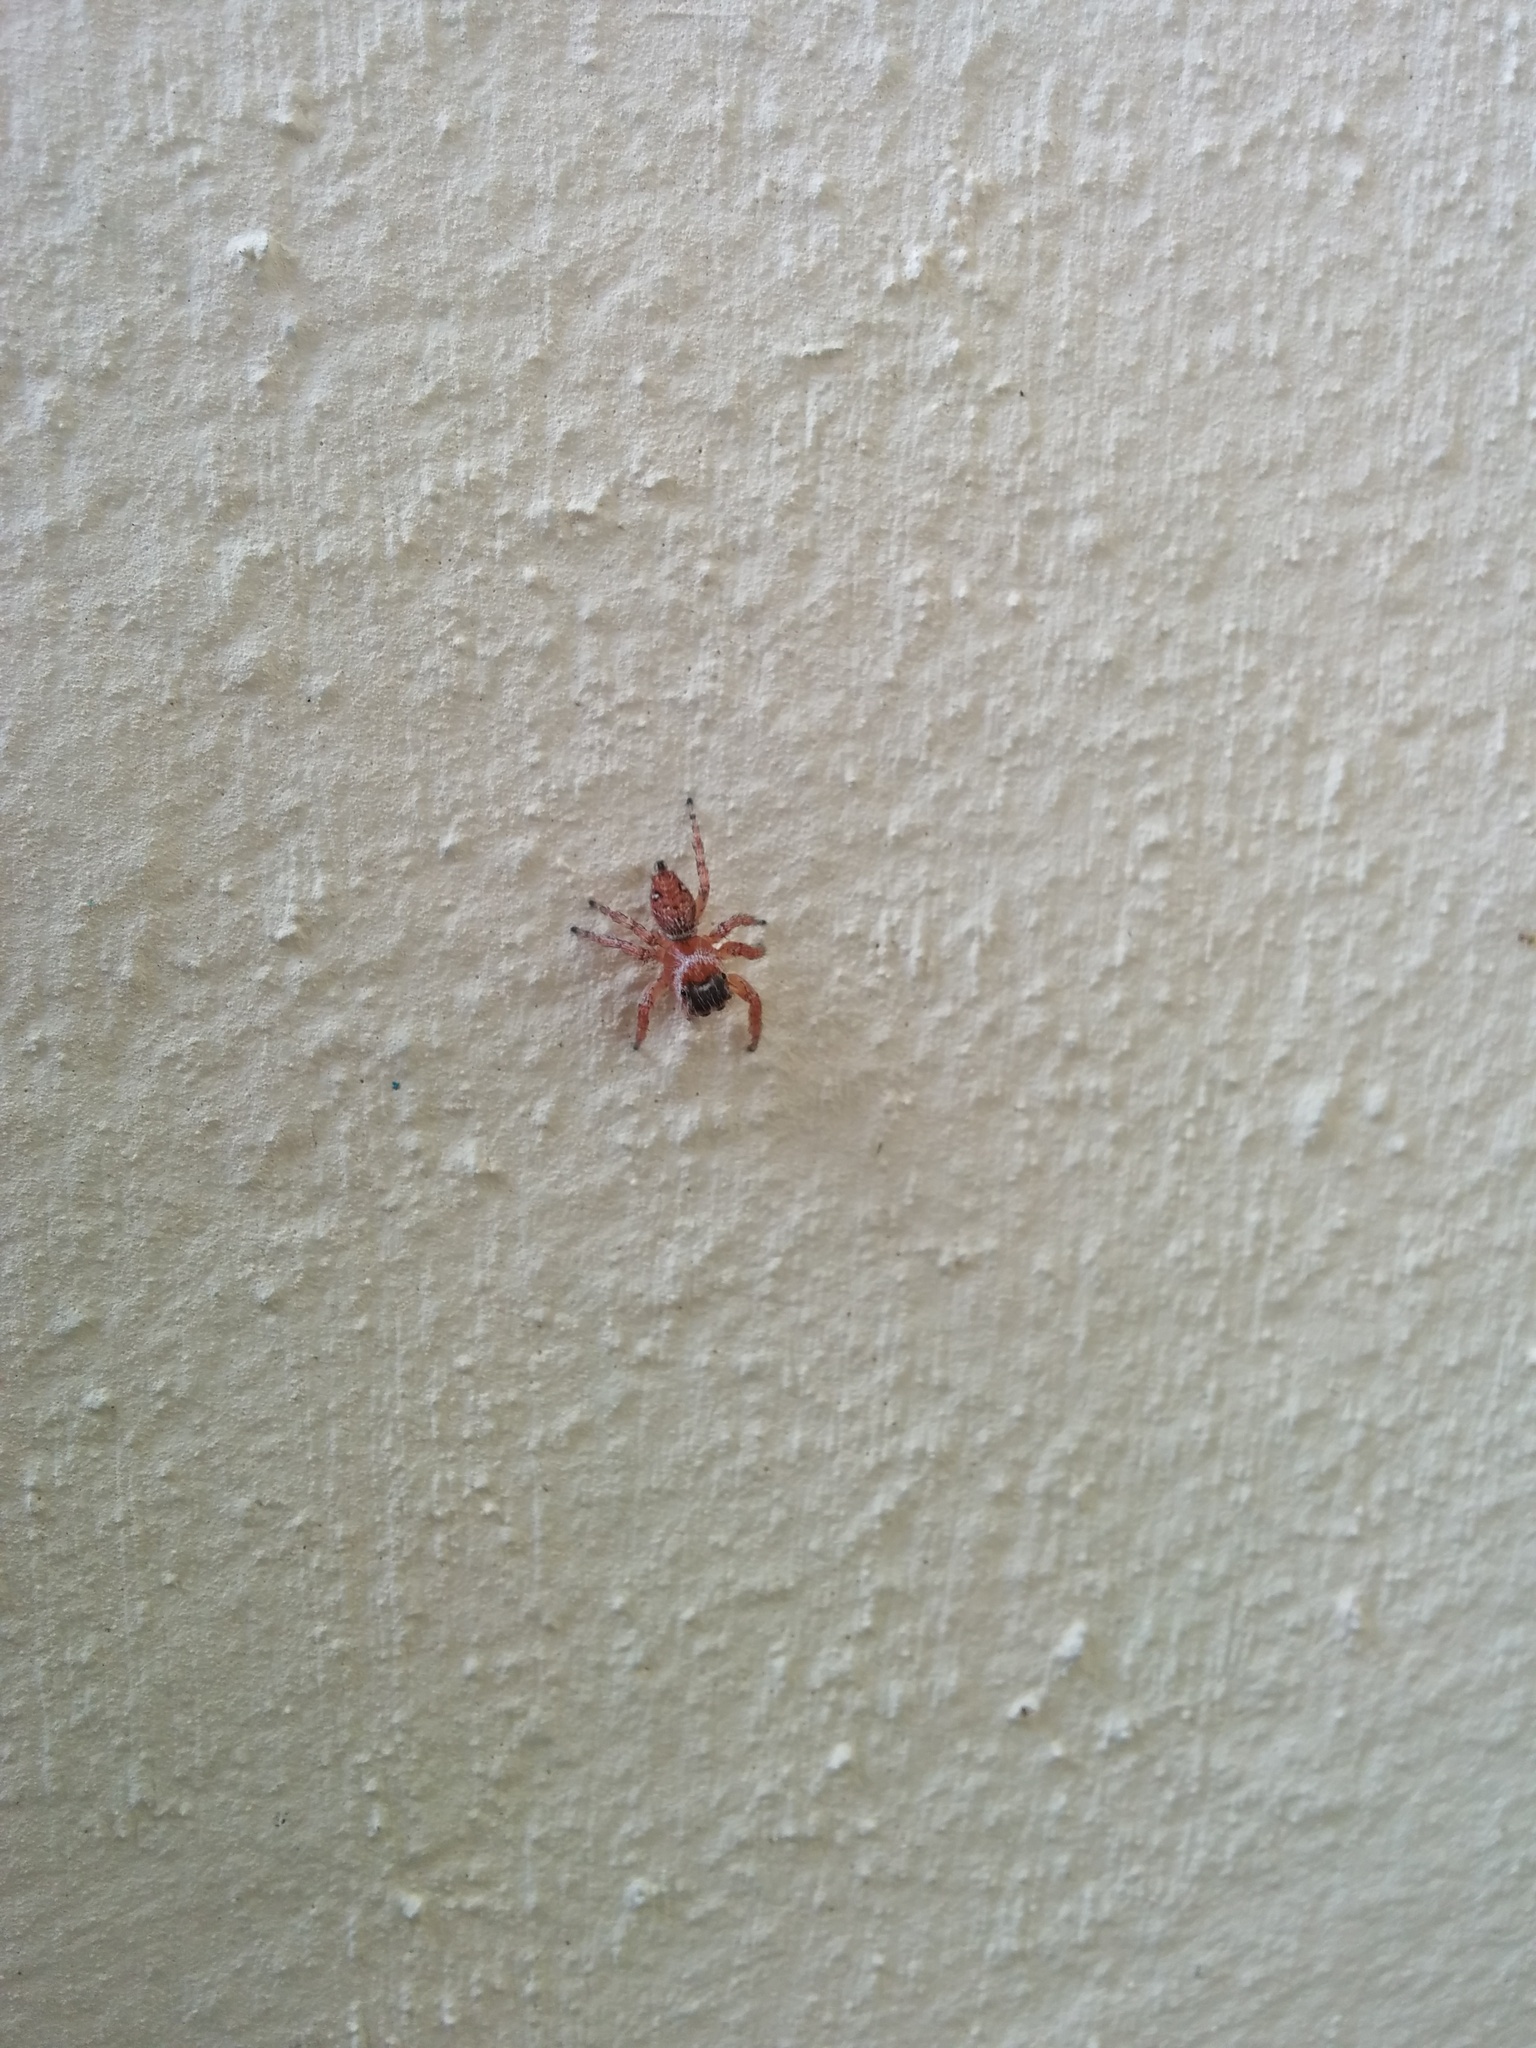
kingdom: Animalia
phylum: Arthropoda
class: Arachnida
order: Araneae
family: Salticidae
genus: Evarcha
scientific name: Evarcha jucunda
